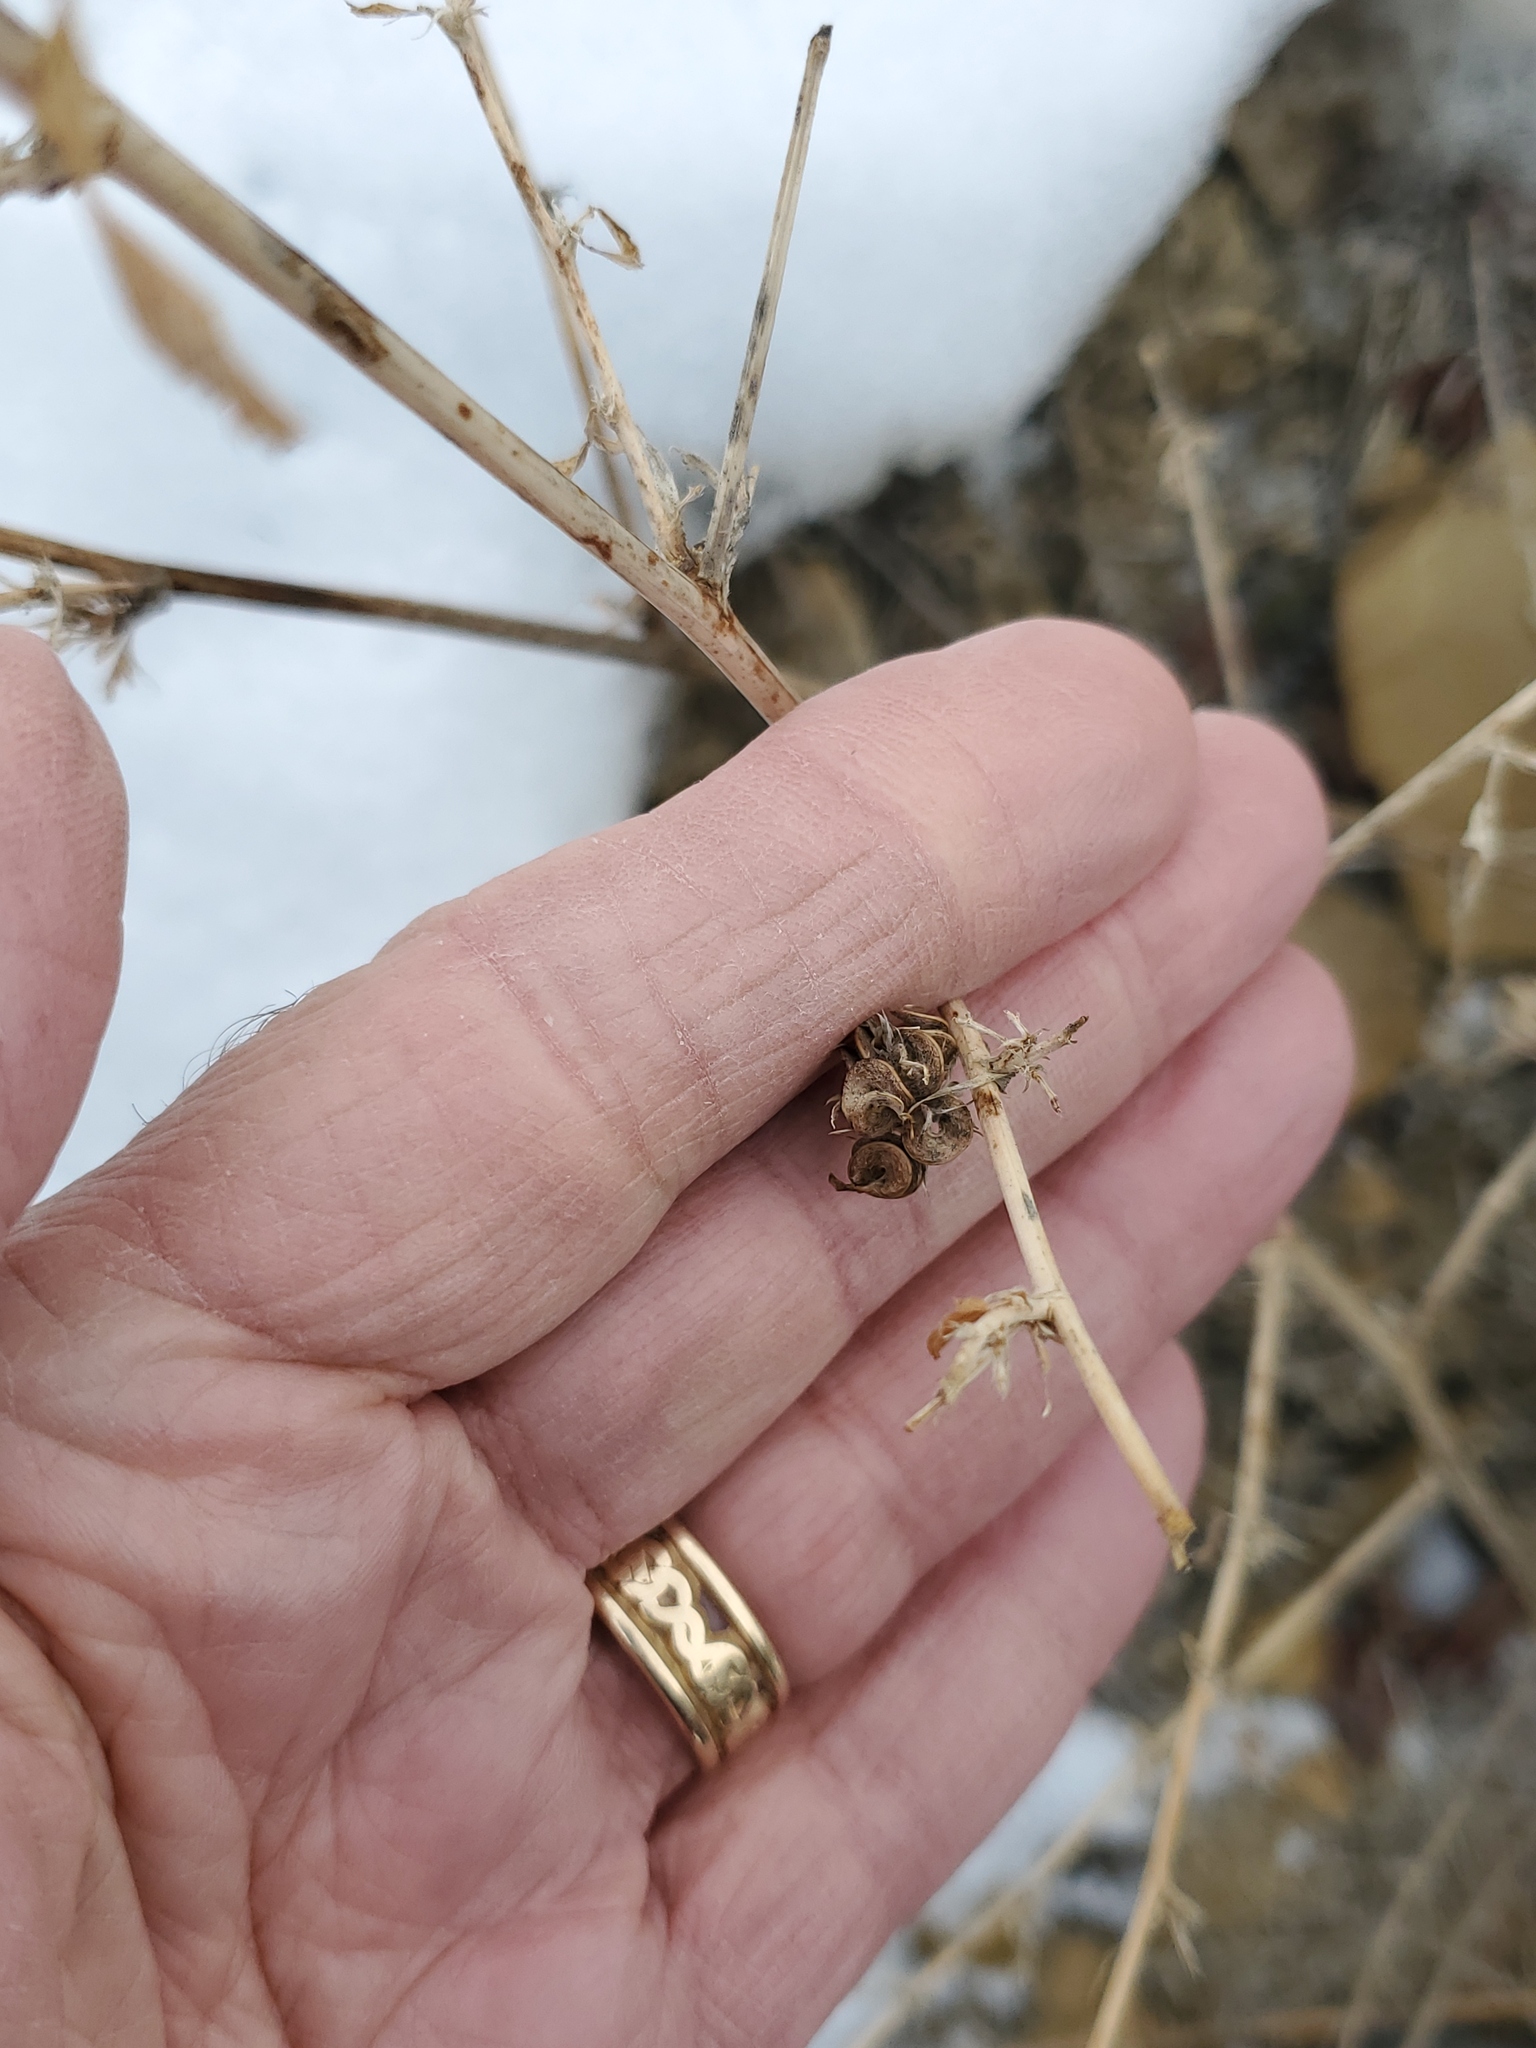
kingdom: Plantae
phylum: Tracheophyta
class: Magnoliopsida
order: Fabales
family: Fabaceae
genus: Medicago
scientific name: Medicago sativa
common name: Alfalfa
